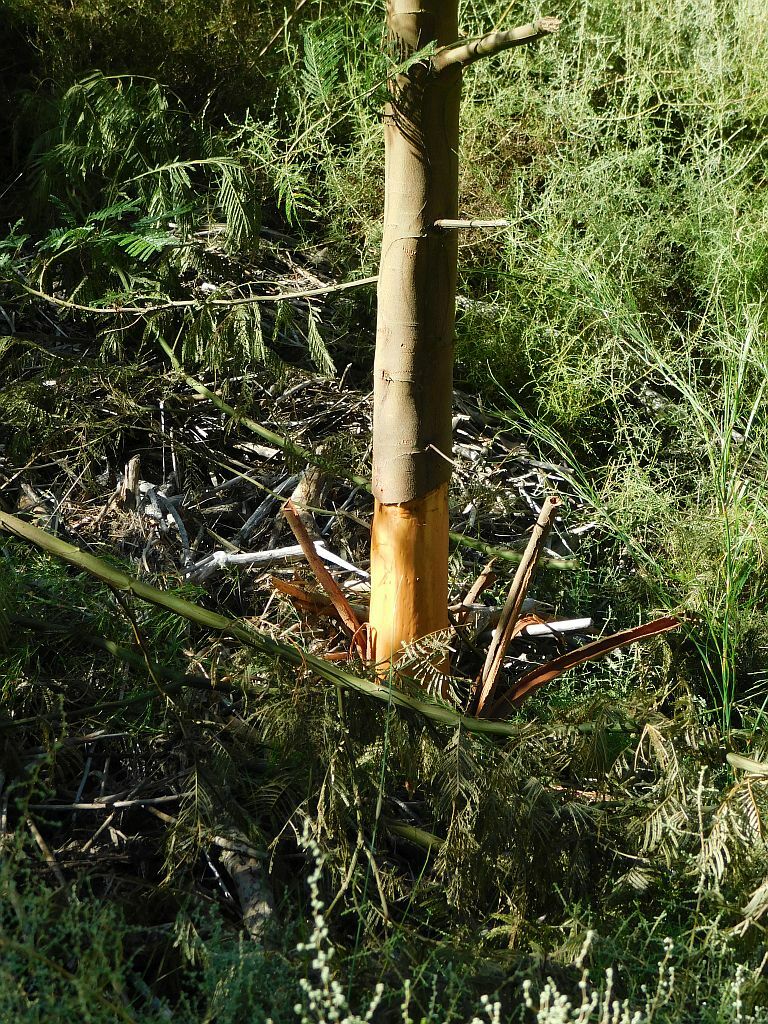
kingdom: Plantae
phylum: Tracheophyta
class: Magnoliopsida
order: Fabales
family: Fabaceae
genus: Acacia
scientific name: Acacia mearnsii
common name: Black wattle
